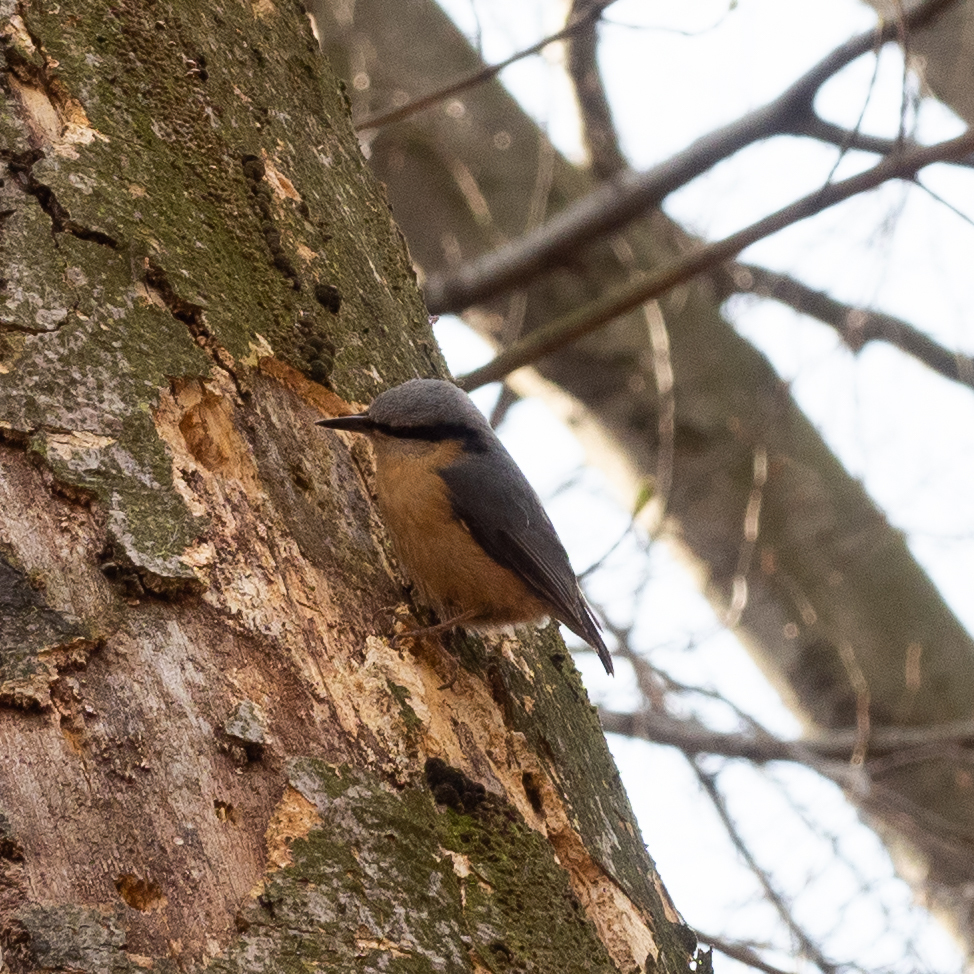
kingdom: Animalia
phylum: Chordata
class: Aves
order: Passeriformes
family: Sittidae
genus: Sitta
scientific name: Sitta europaea
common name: Eurasian nuthatch
